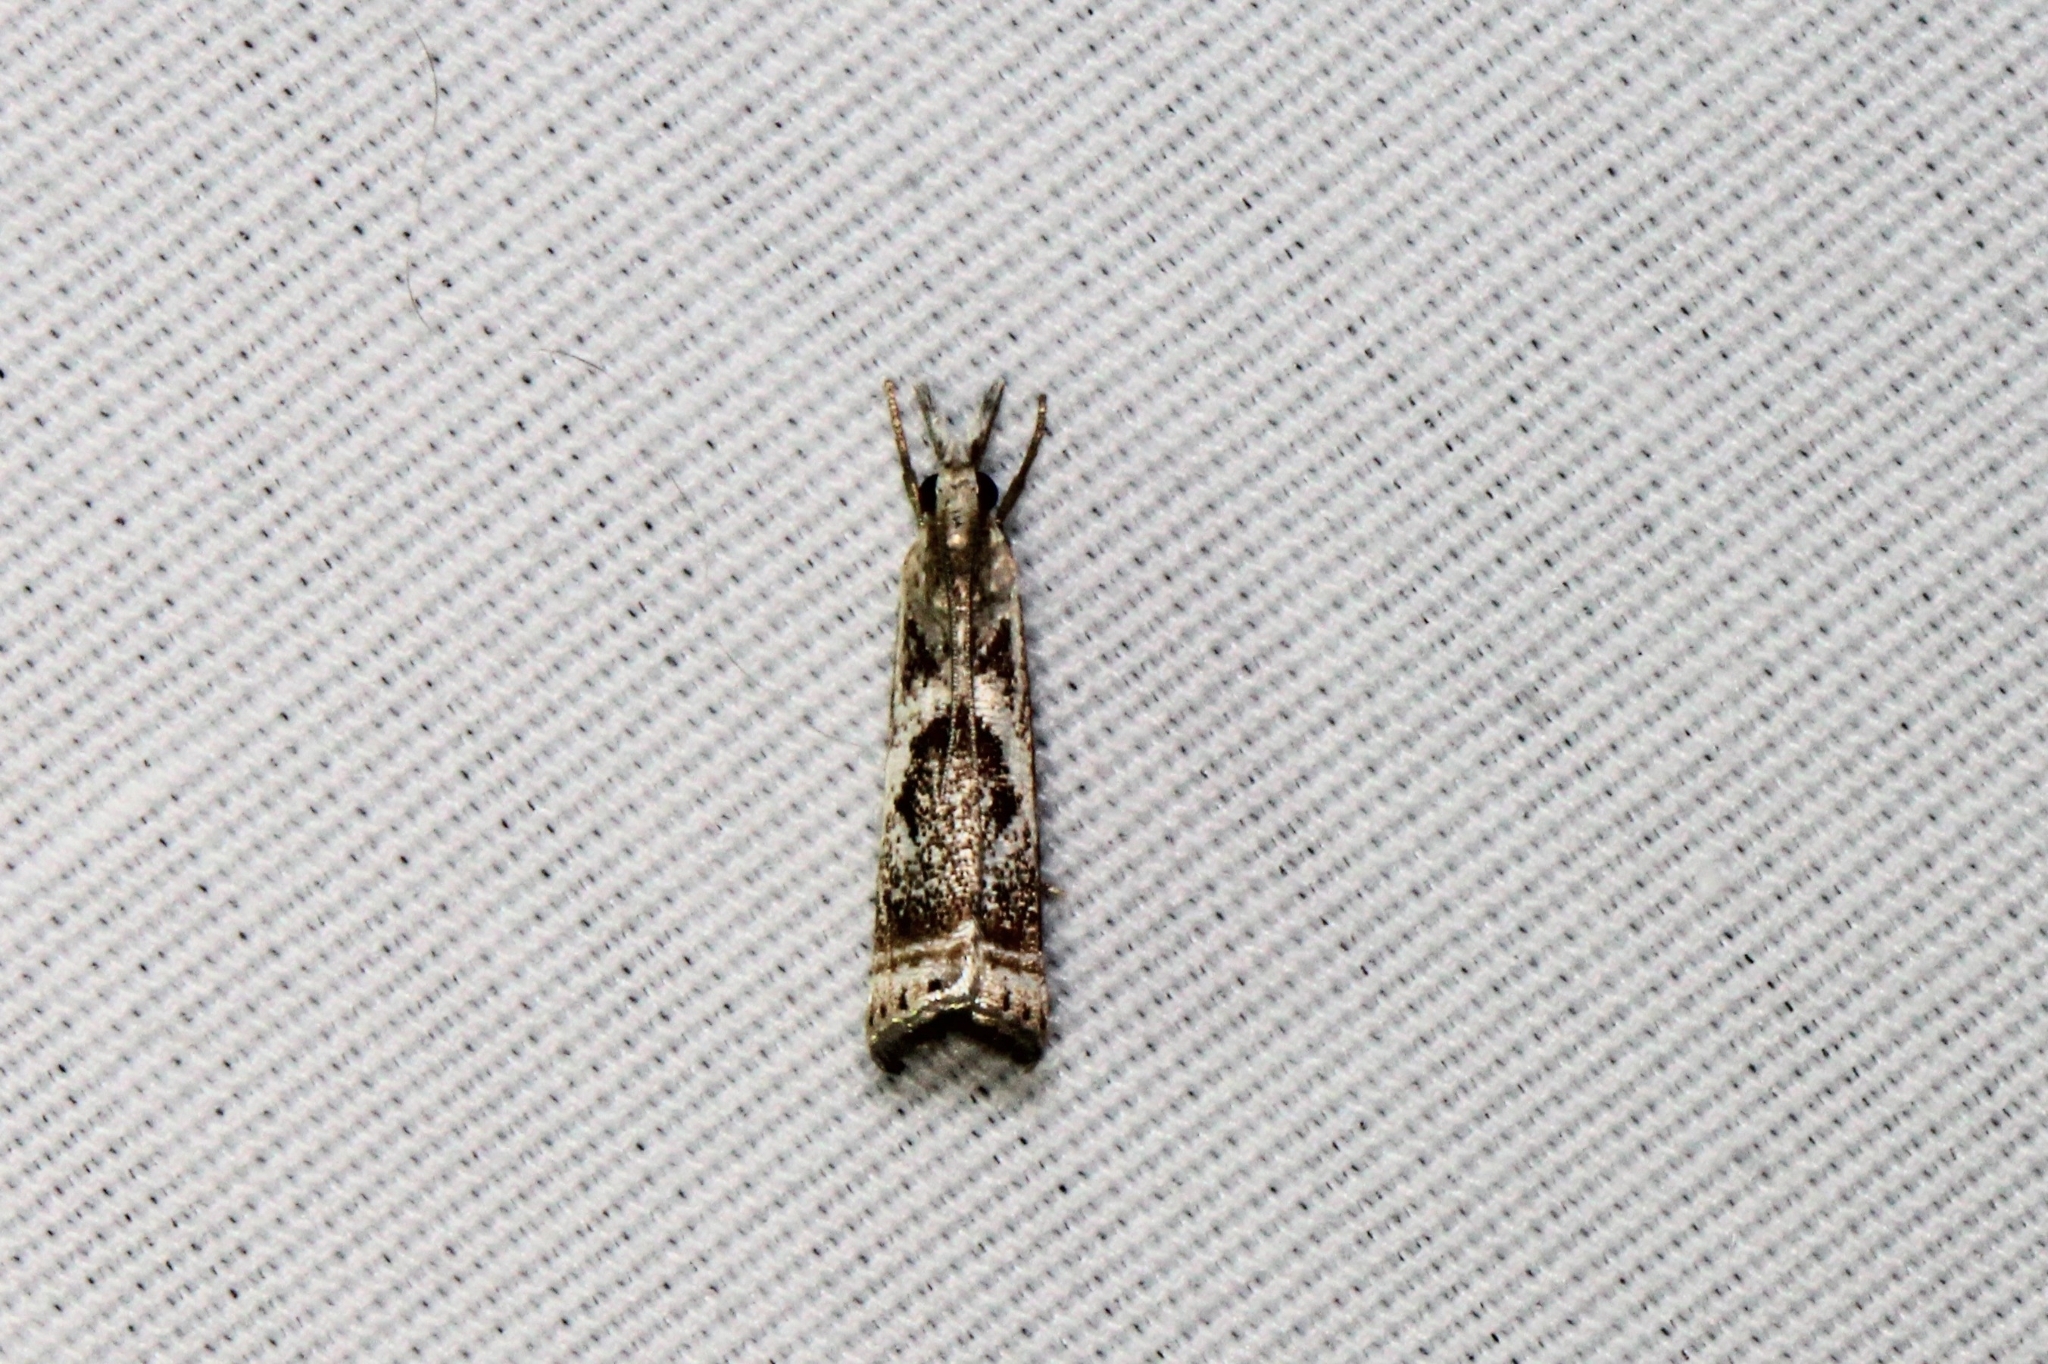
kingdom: Animalia
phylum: Arthropoda
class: Insecta
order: Lepidoptera
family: Crambidae
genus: Microcrambus
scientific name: Microcrambus elegans
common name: Elegant grass-veneer
